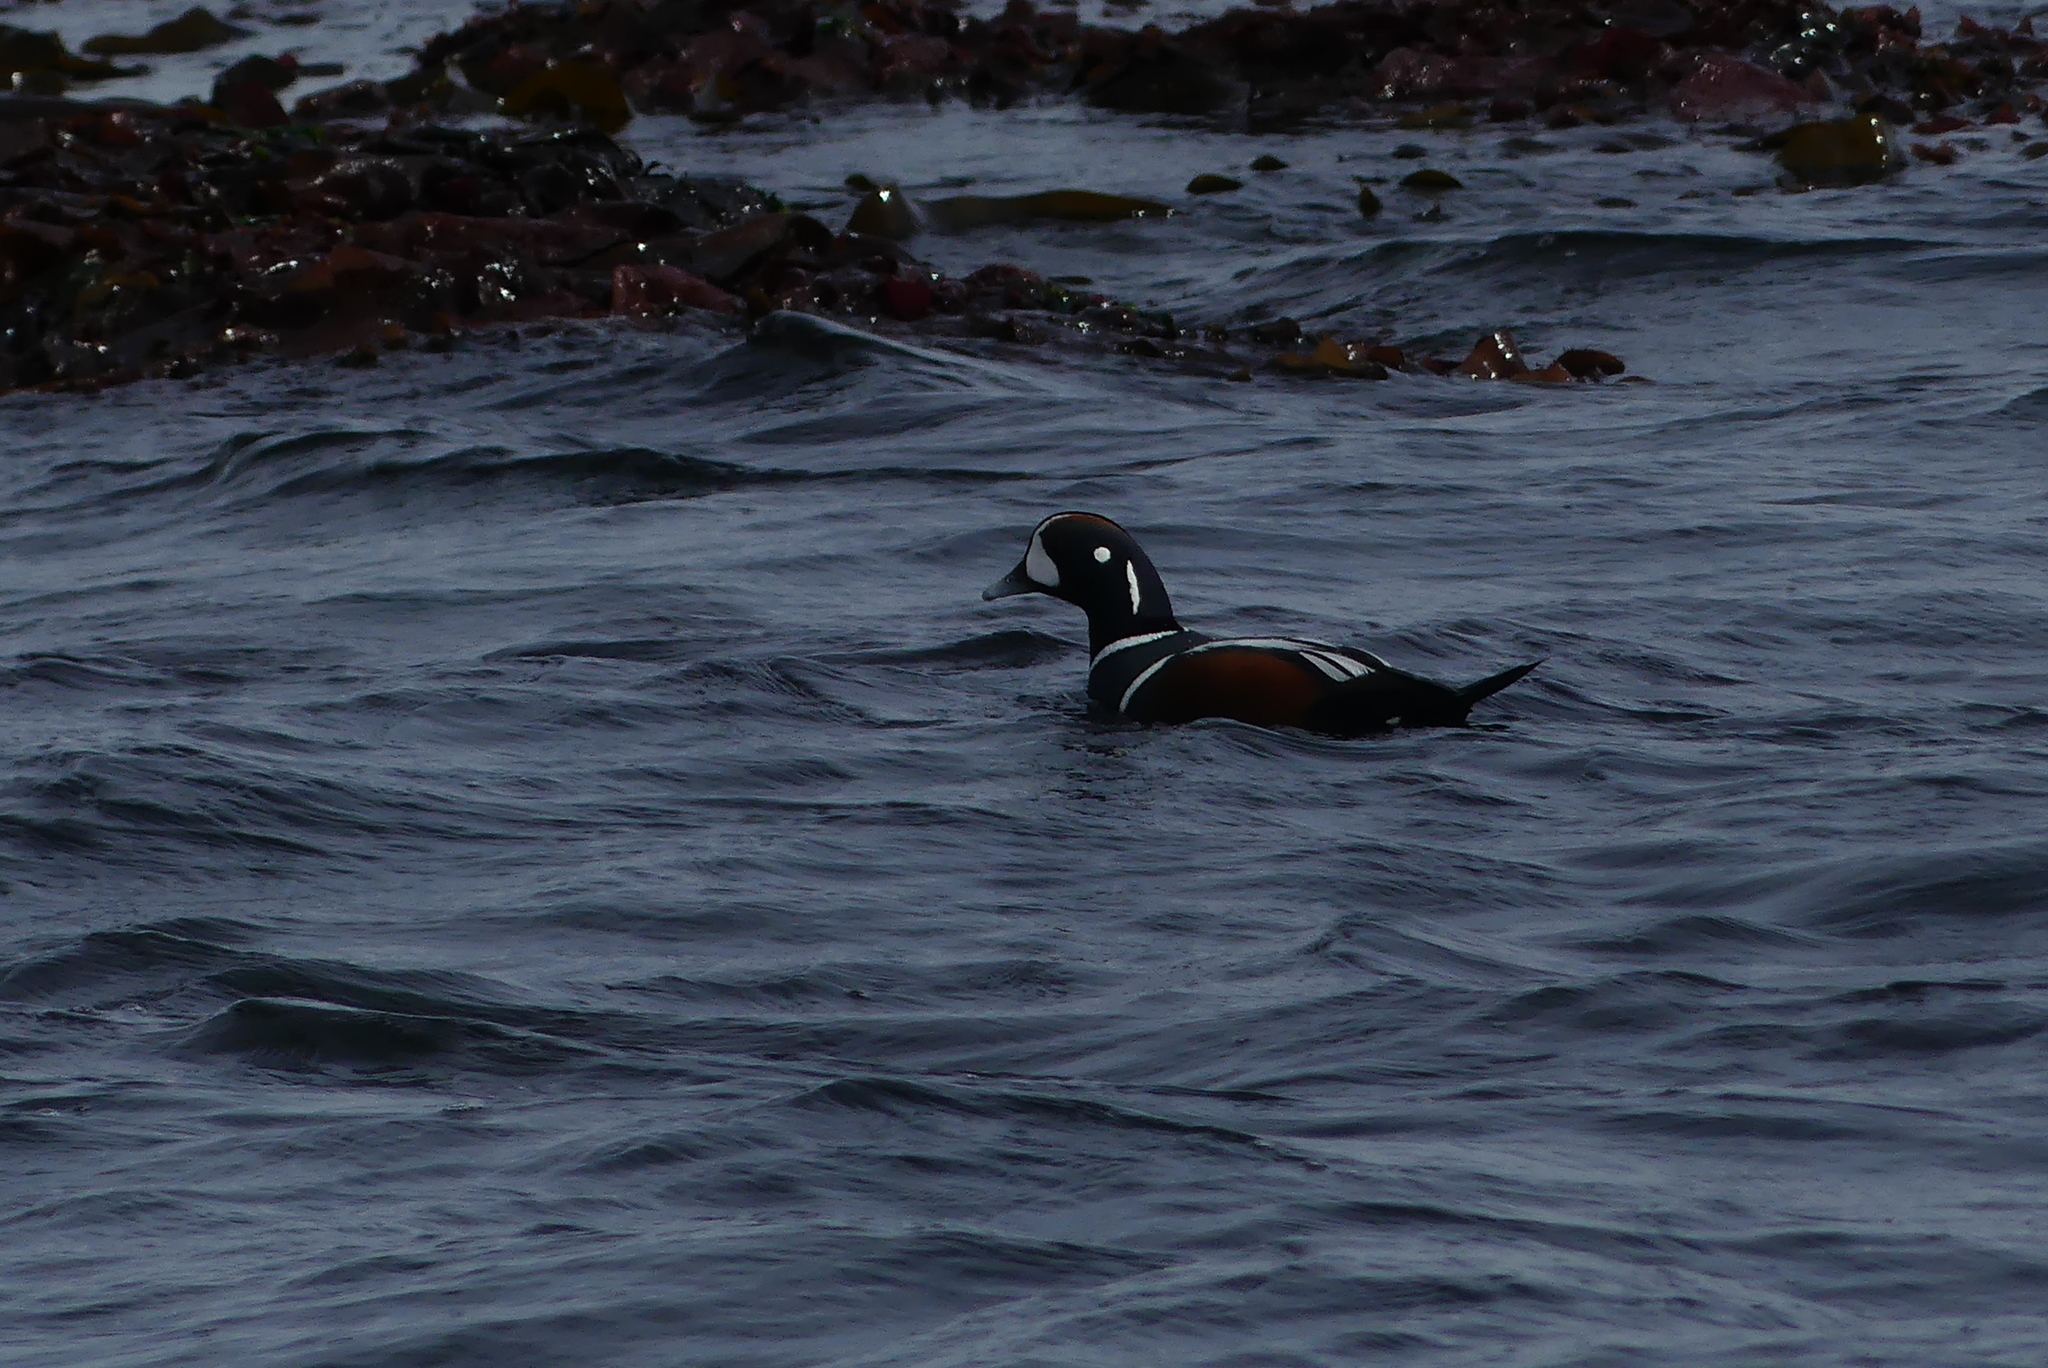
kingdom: Animalia
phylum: Chordata
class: Aves
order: Anseriformes
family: Anatidae
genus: Histrionicus
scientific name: Histrionicus histrionicus
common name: Harlequin duck
